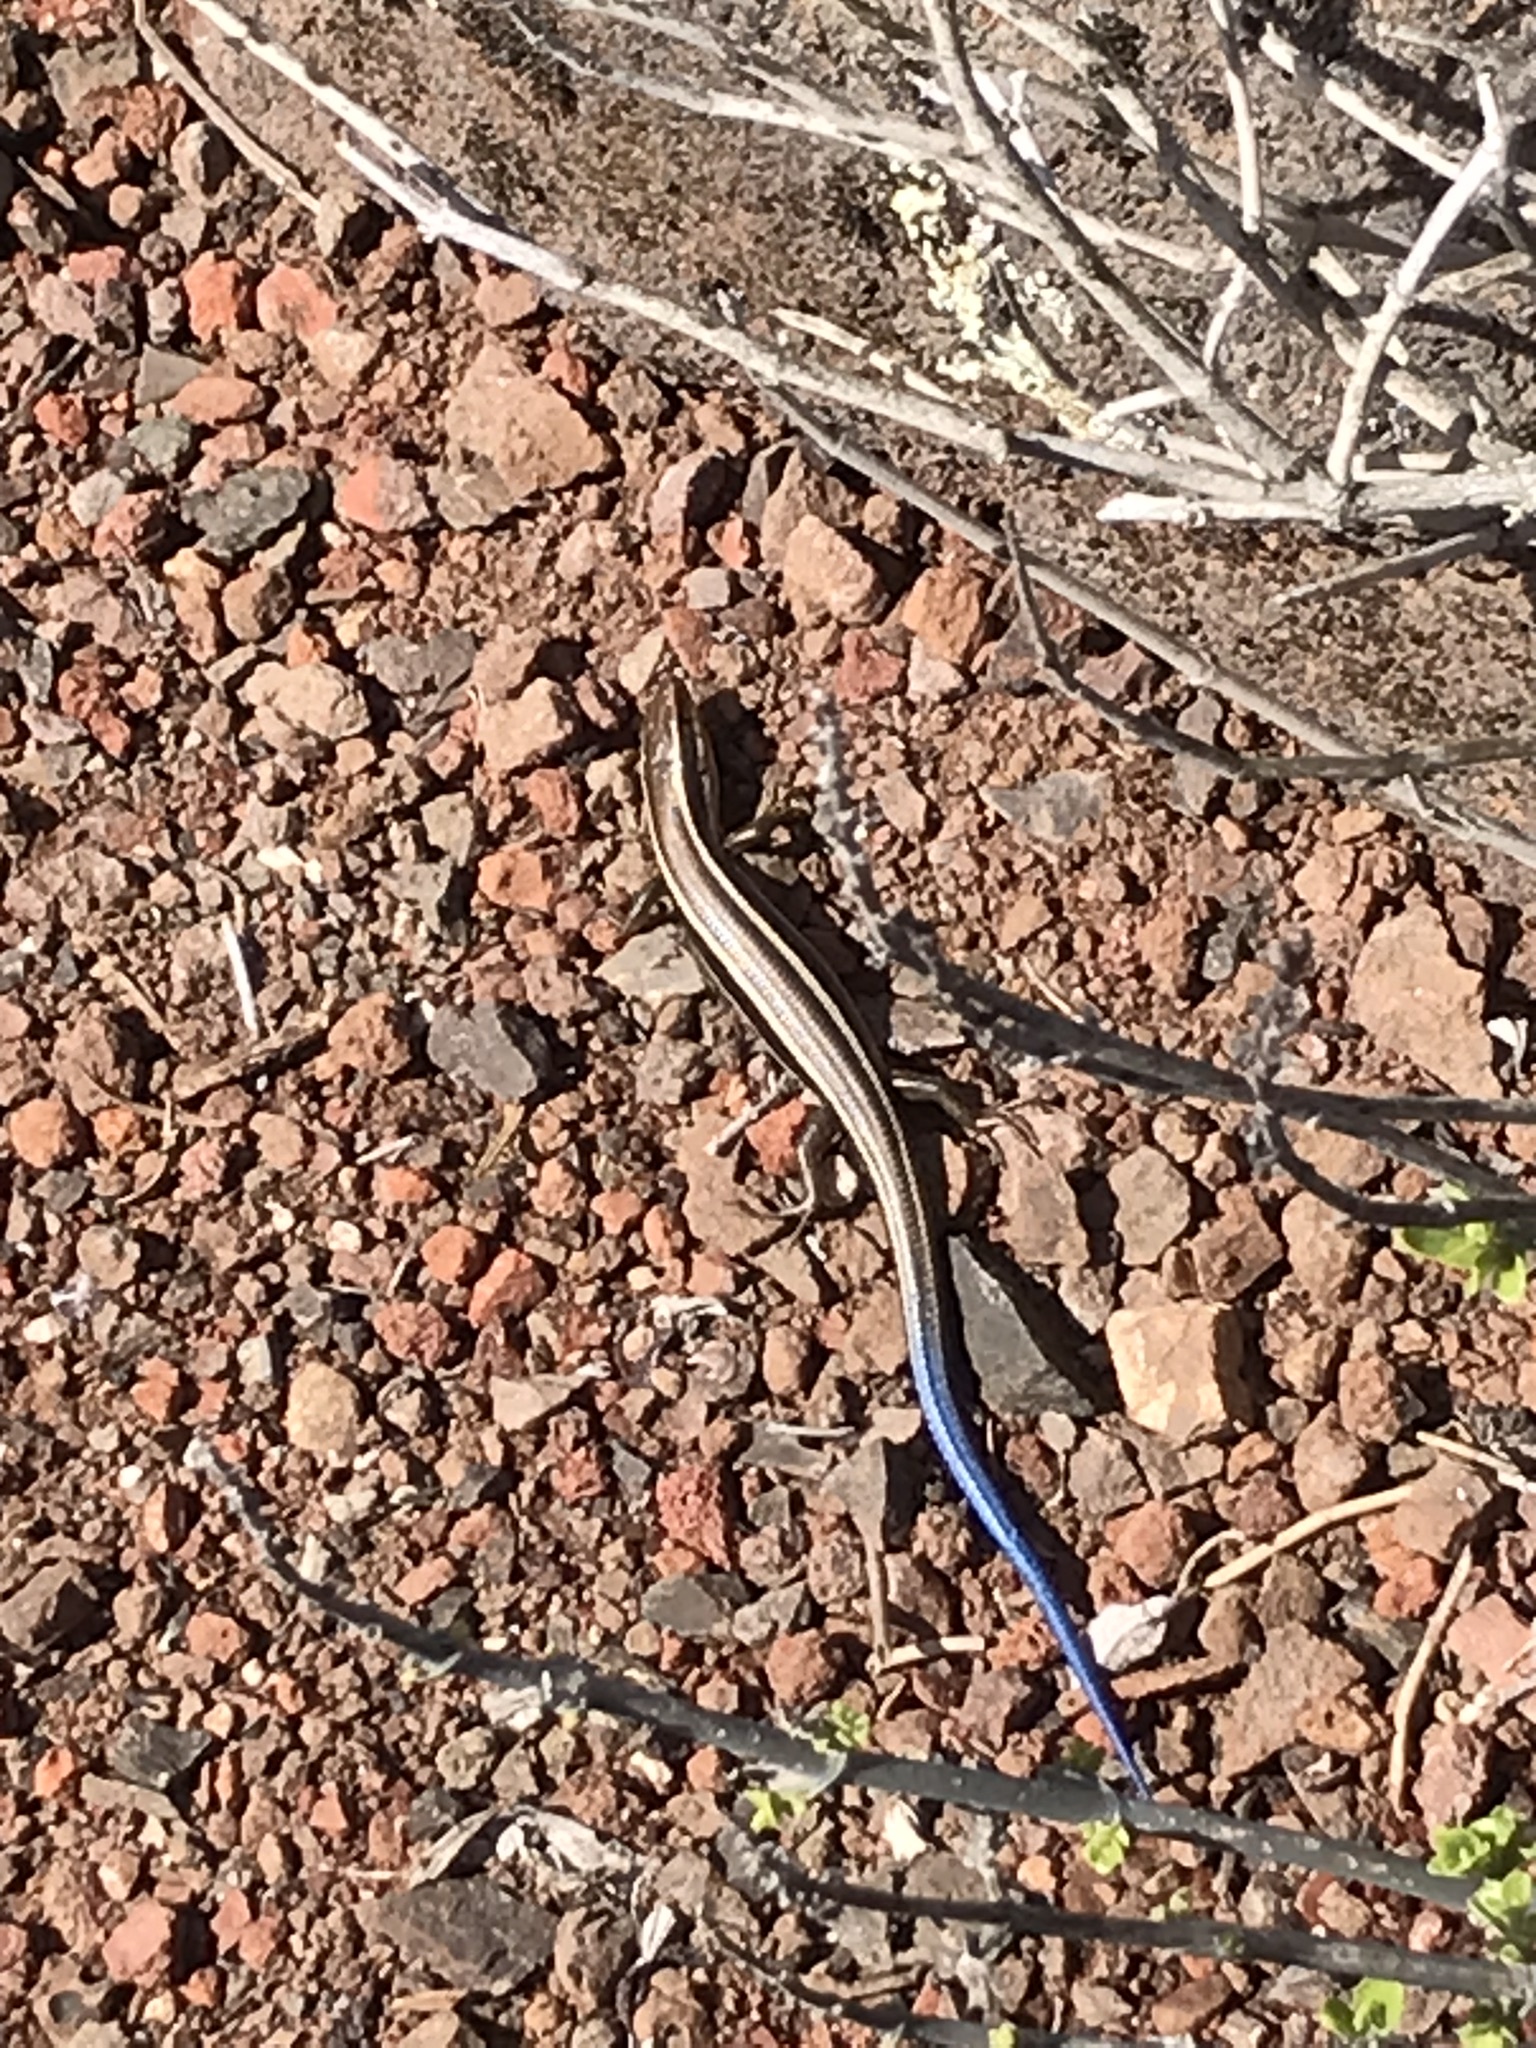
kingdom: Animalia
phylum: Chordata
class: Squamata
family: Scincidae
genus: Plestiodon
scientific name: Plestiodon skiltonianus
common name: Coronado island skink [interparietalis]
